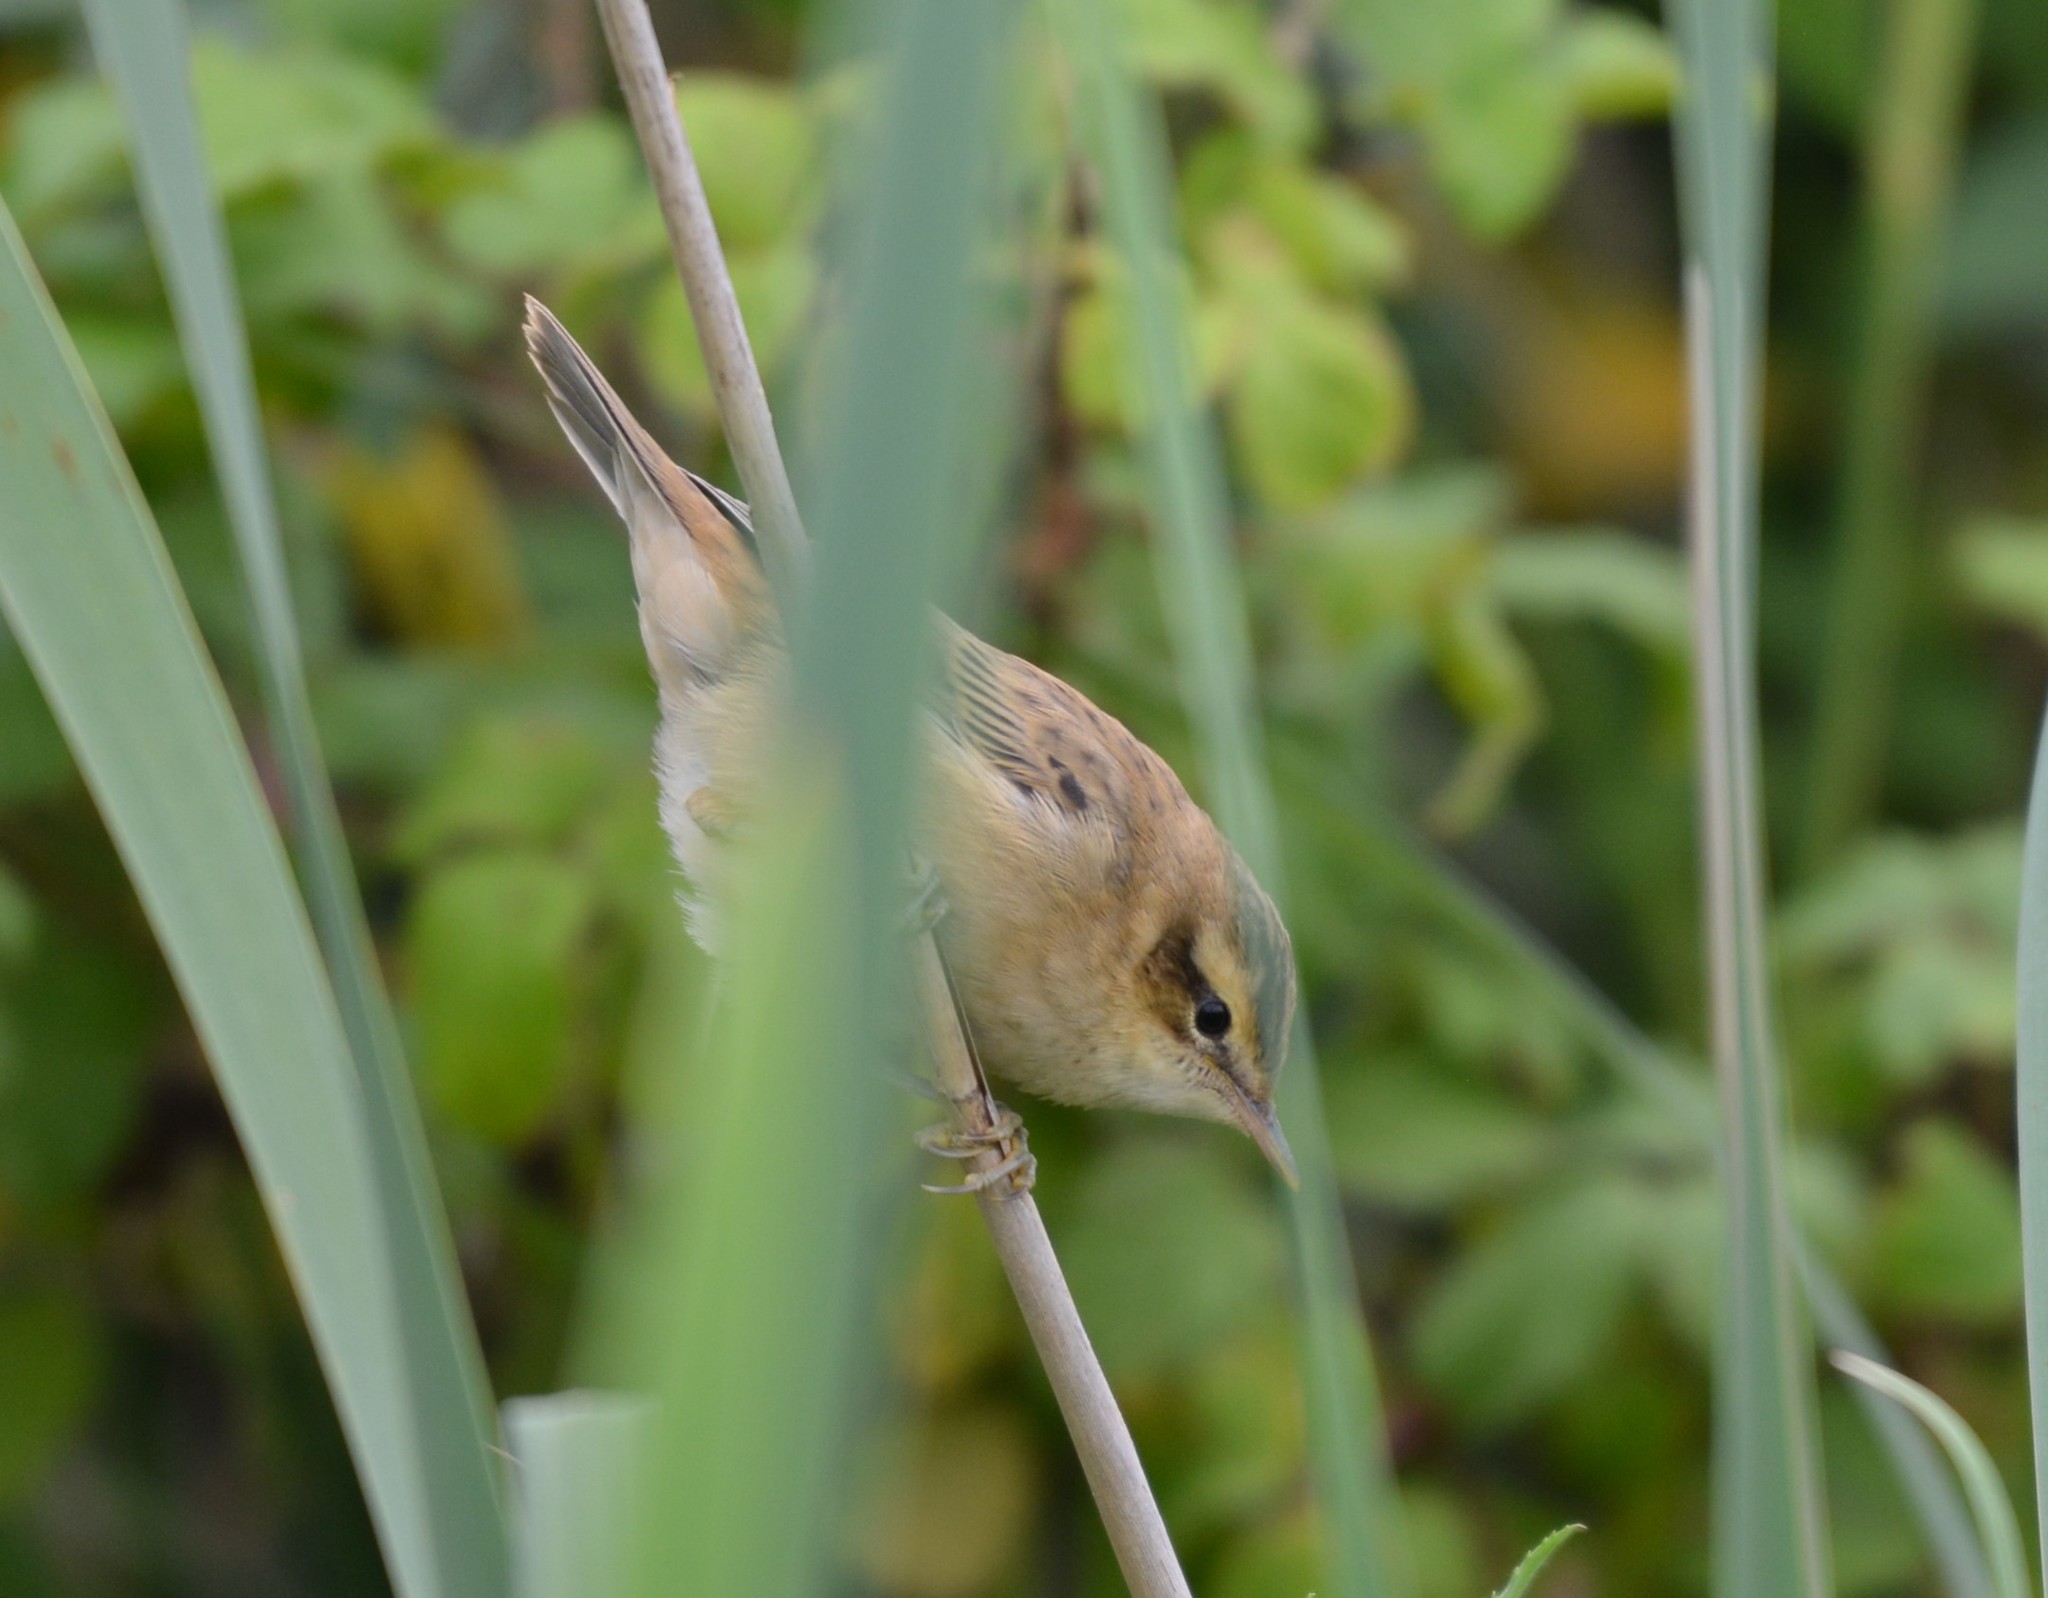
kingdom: Animalia
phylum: Chordata
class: Aves
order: Passeriformes
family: Acrocephalidae
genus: Acrocephalus
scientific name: Acrocephalus schoenobaenus
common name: Sedge warbler
